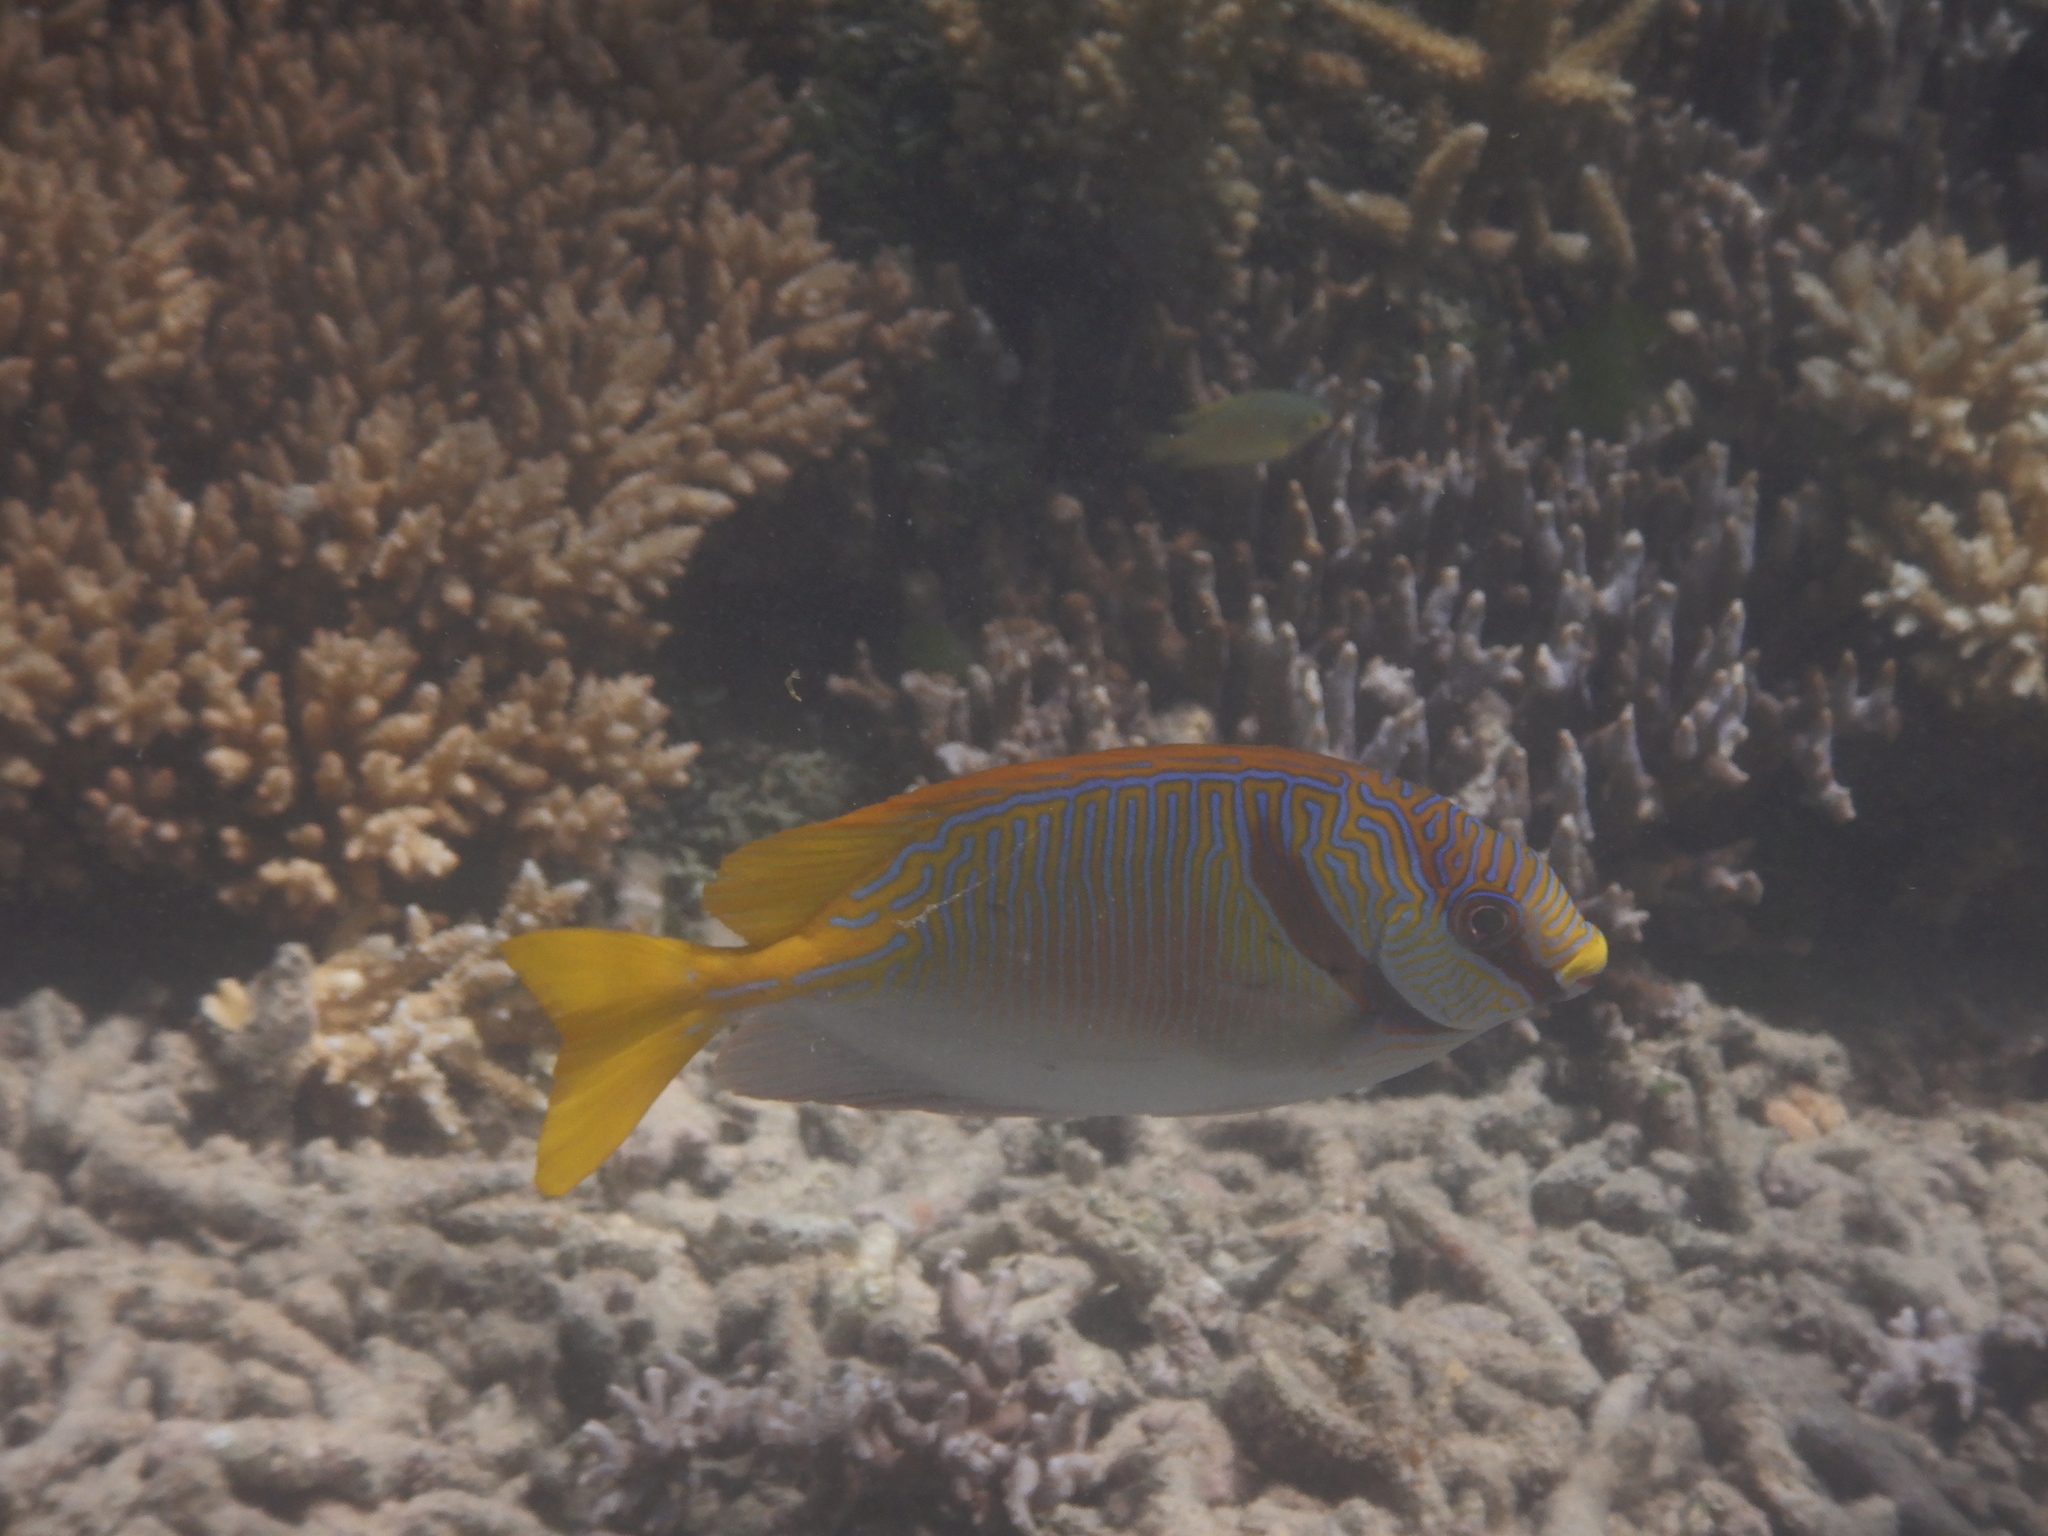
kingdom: Animalia
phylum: Chordata
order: Perciformes
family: Siganidae
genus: Siganus
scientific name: Siganus doliatus
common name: Barred spinefoot
